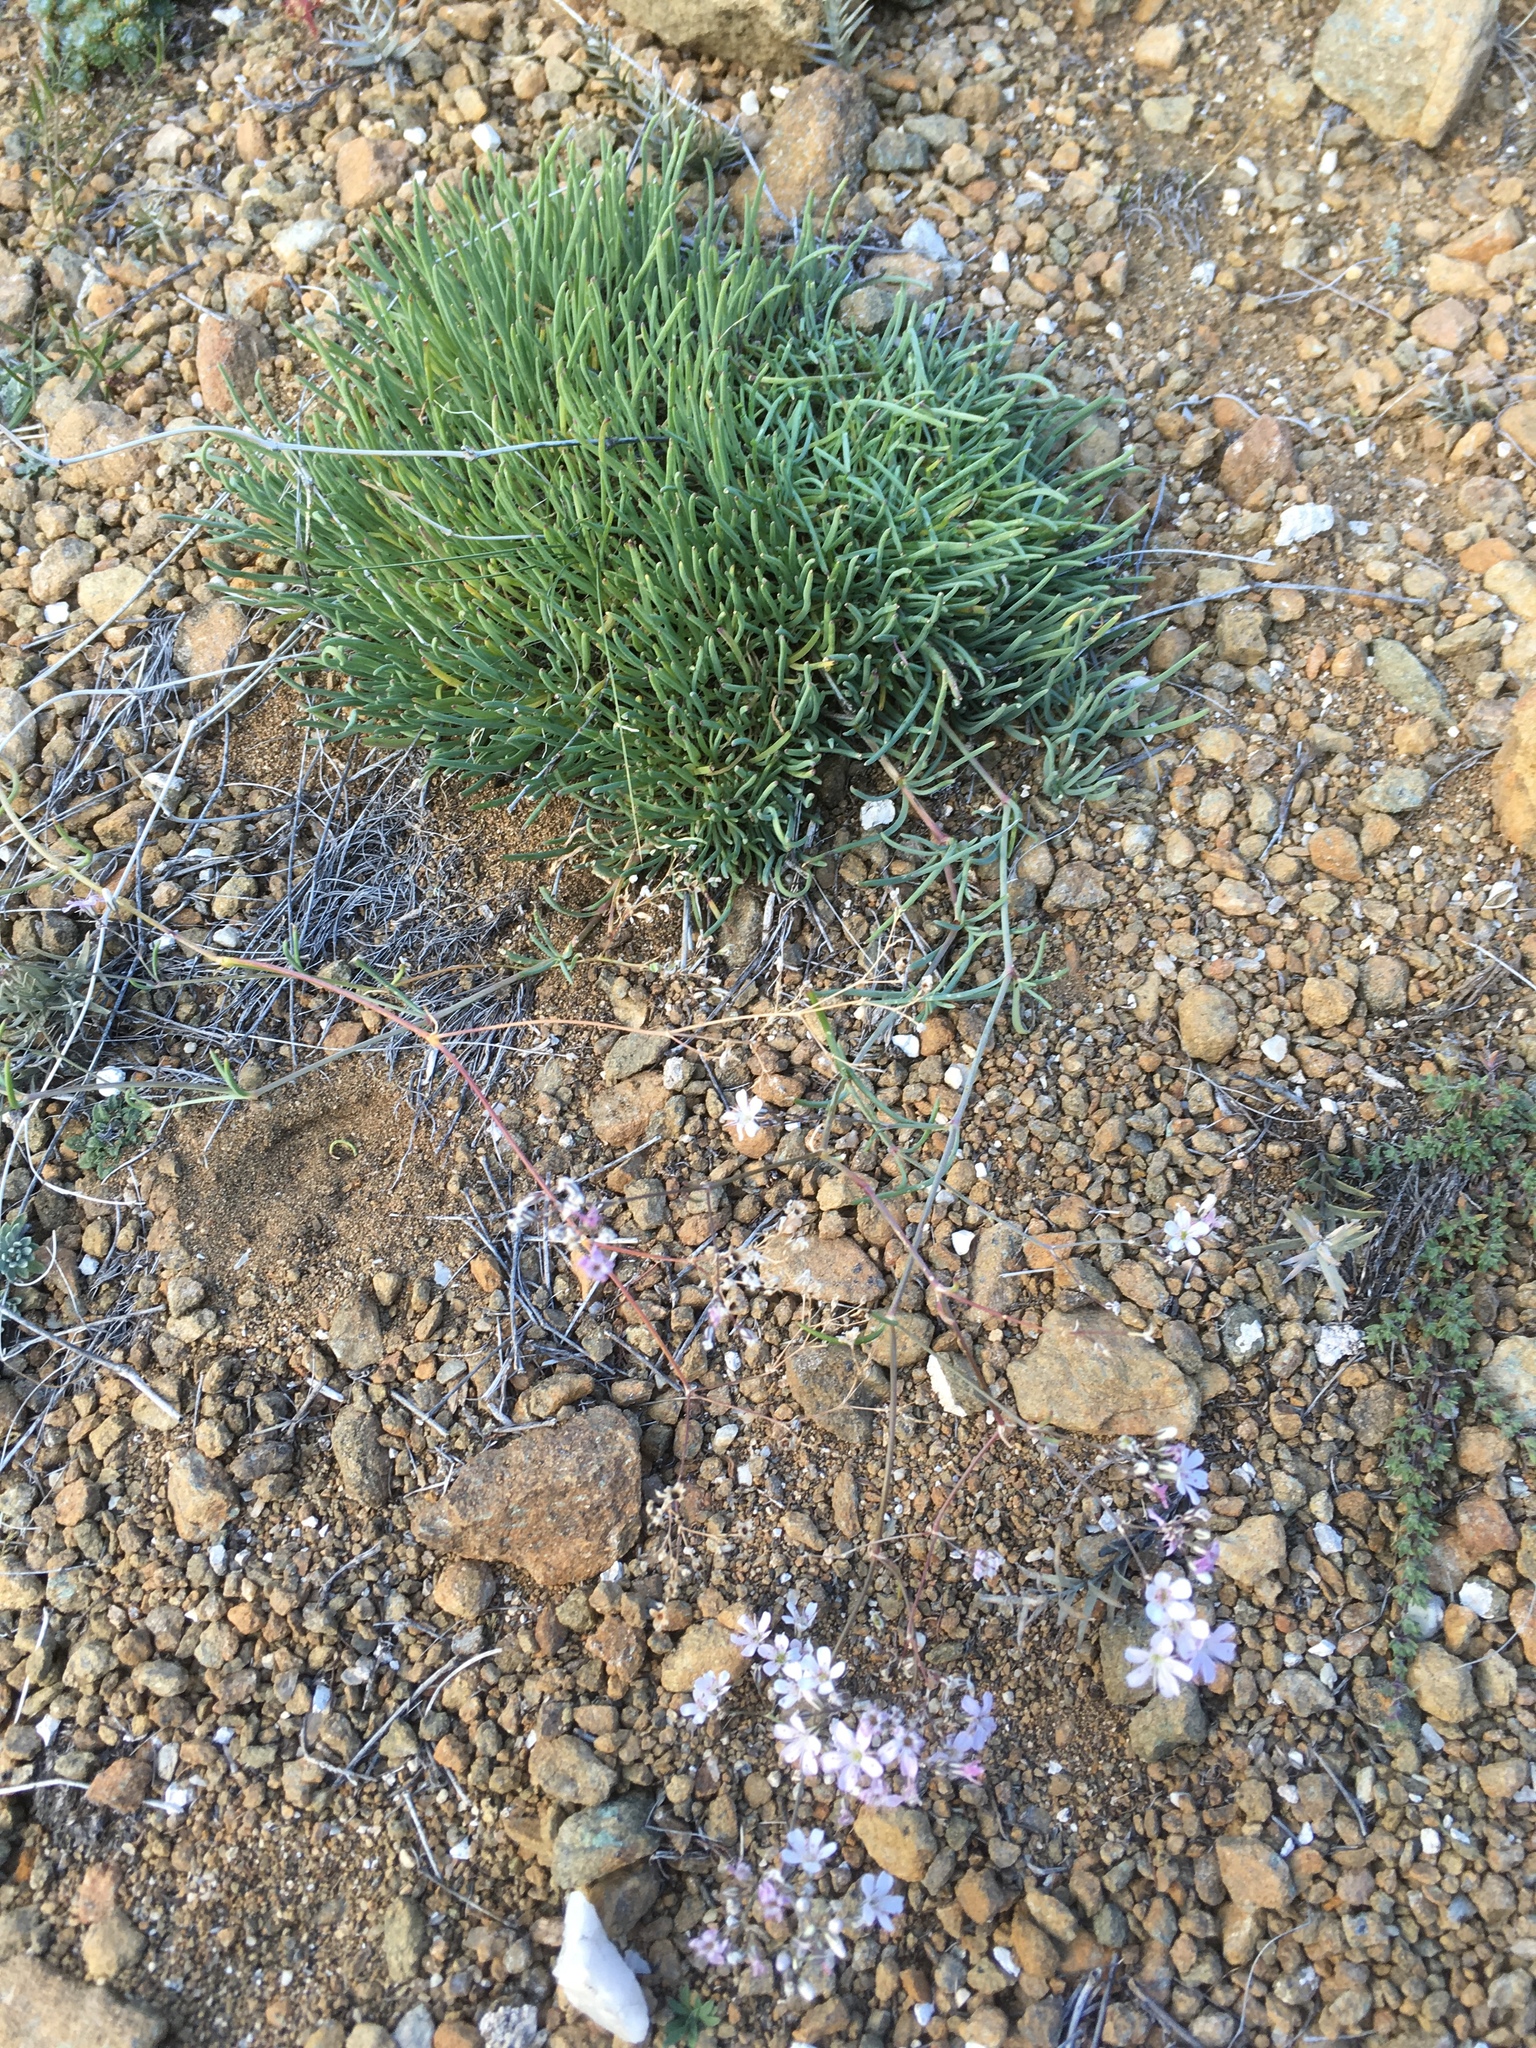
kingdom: Plantae
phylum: Tracheophyta
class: Magnoliopsida
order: Caryophyllales
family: Caryophyllaceae
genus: Gypsophila
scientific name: Gypsophila patrinii
